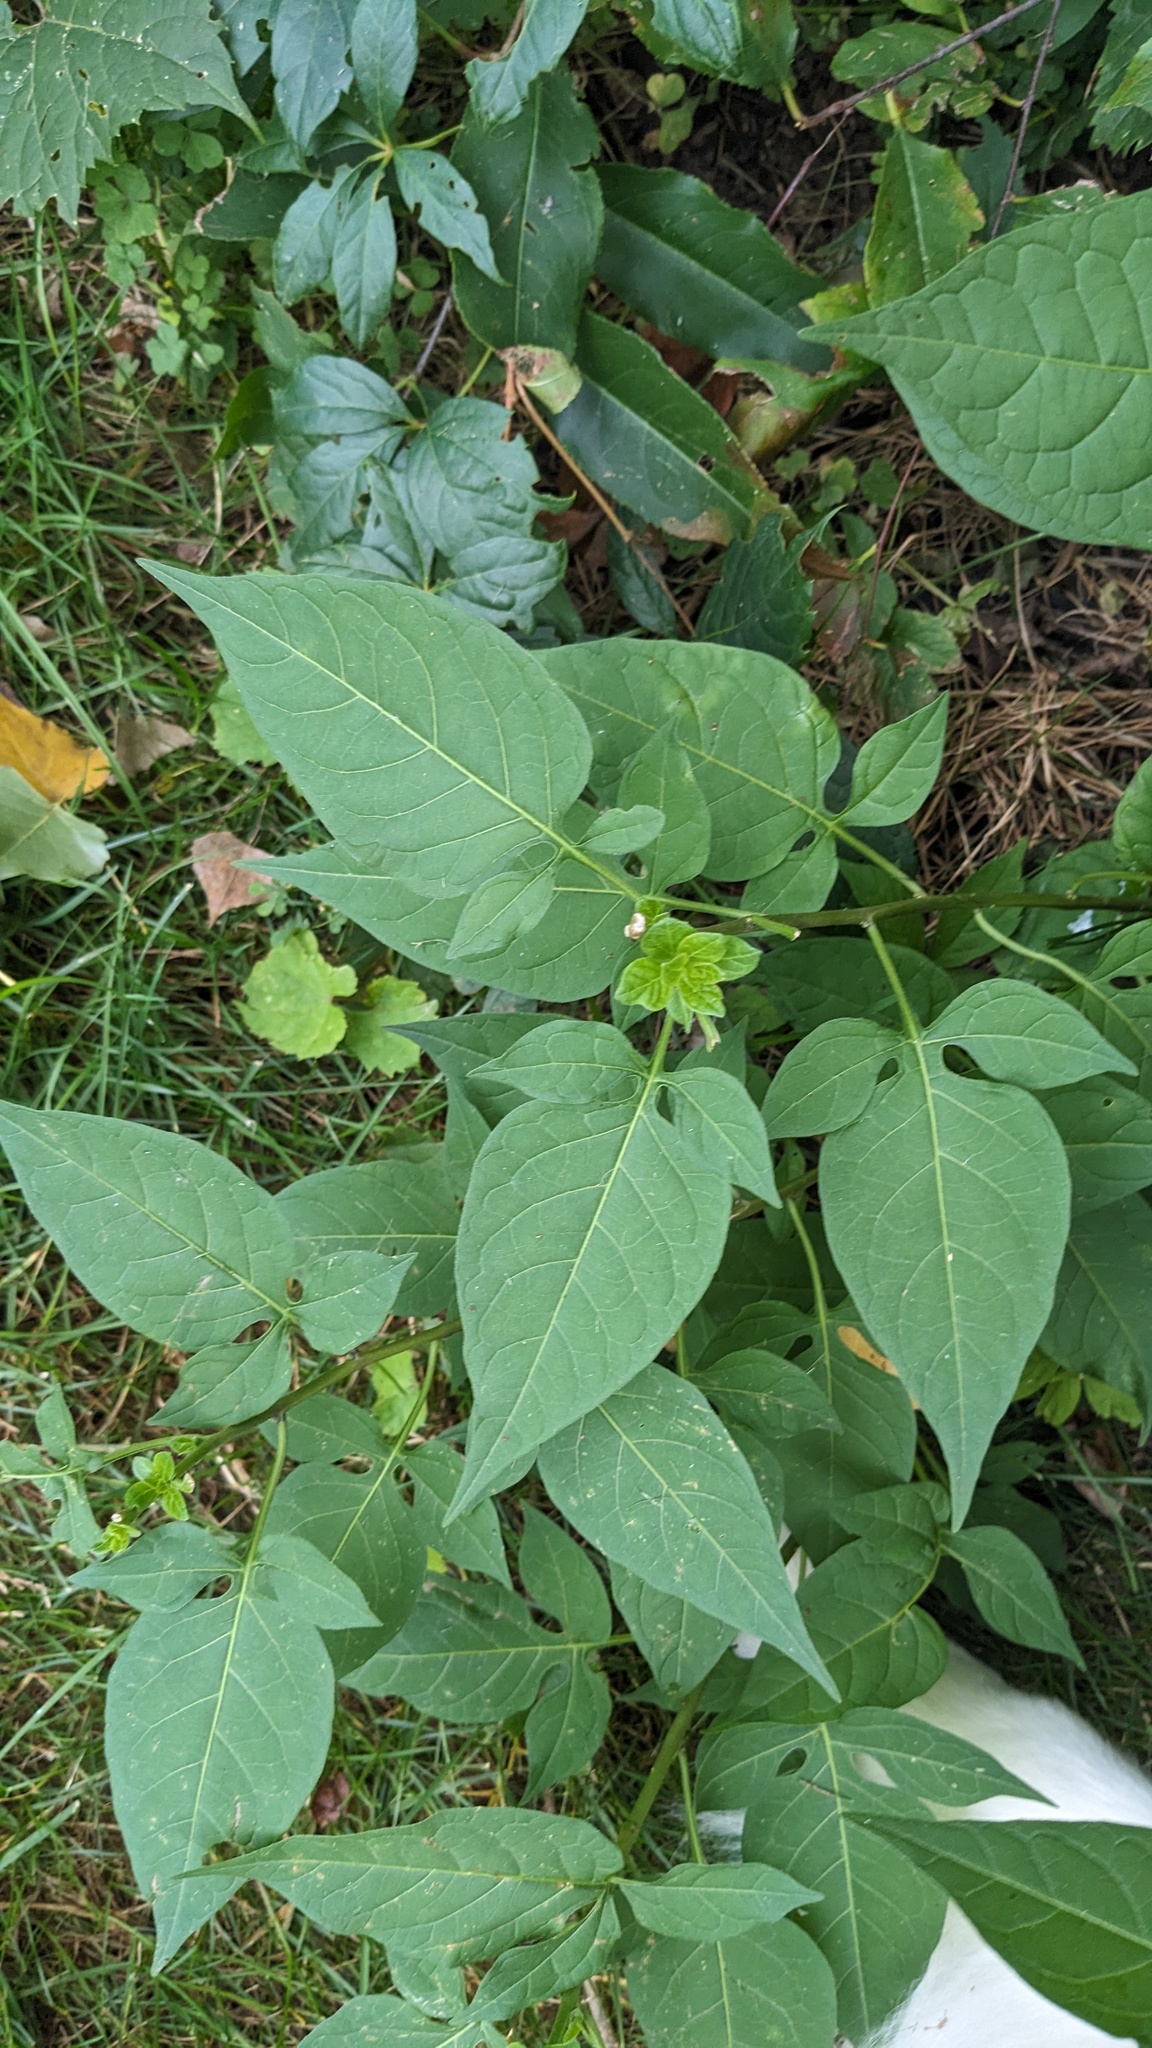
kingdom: Plantae
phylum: Tracheophyta
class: Magnoliopsida
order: Solanales
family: Solanaceae
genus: Solanum
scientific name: Solanum dulcamara
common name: Climbing nightshade
